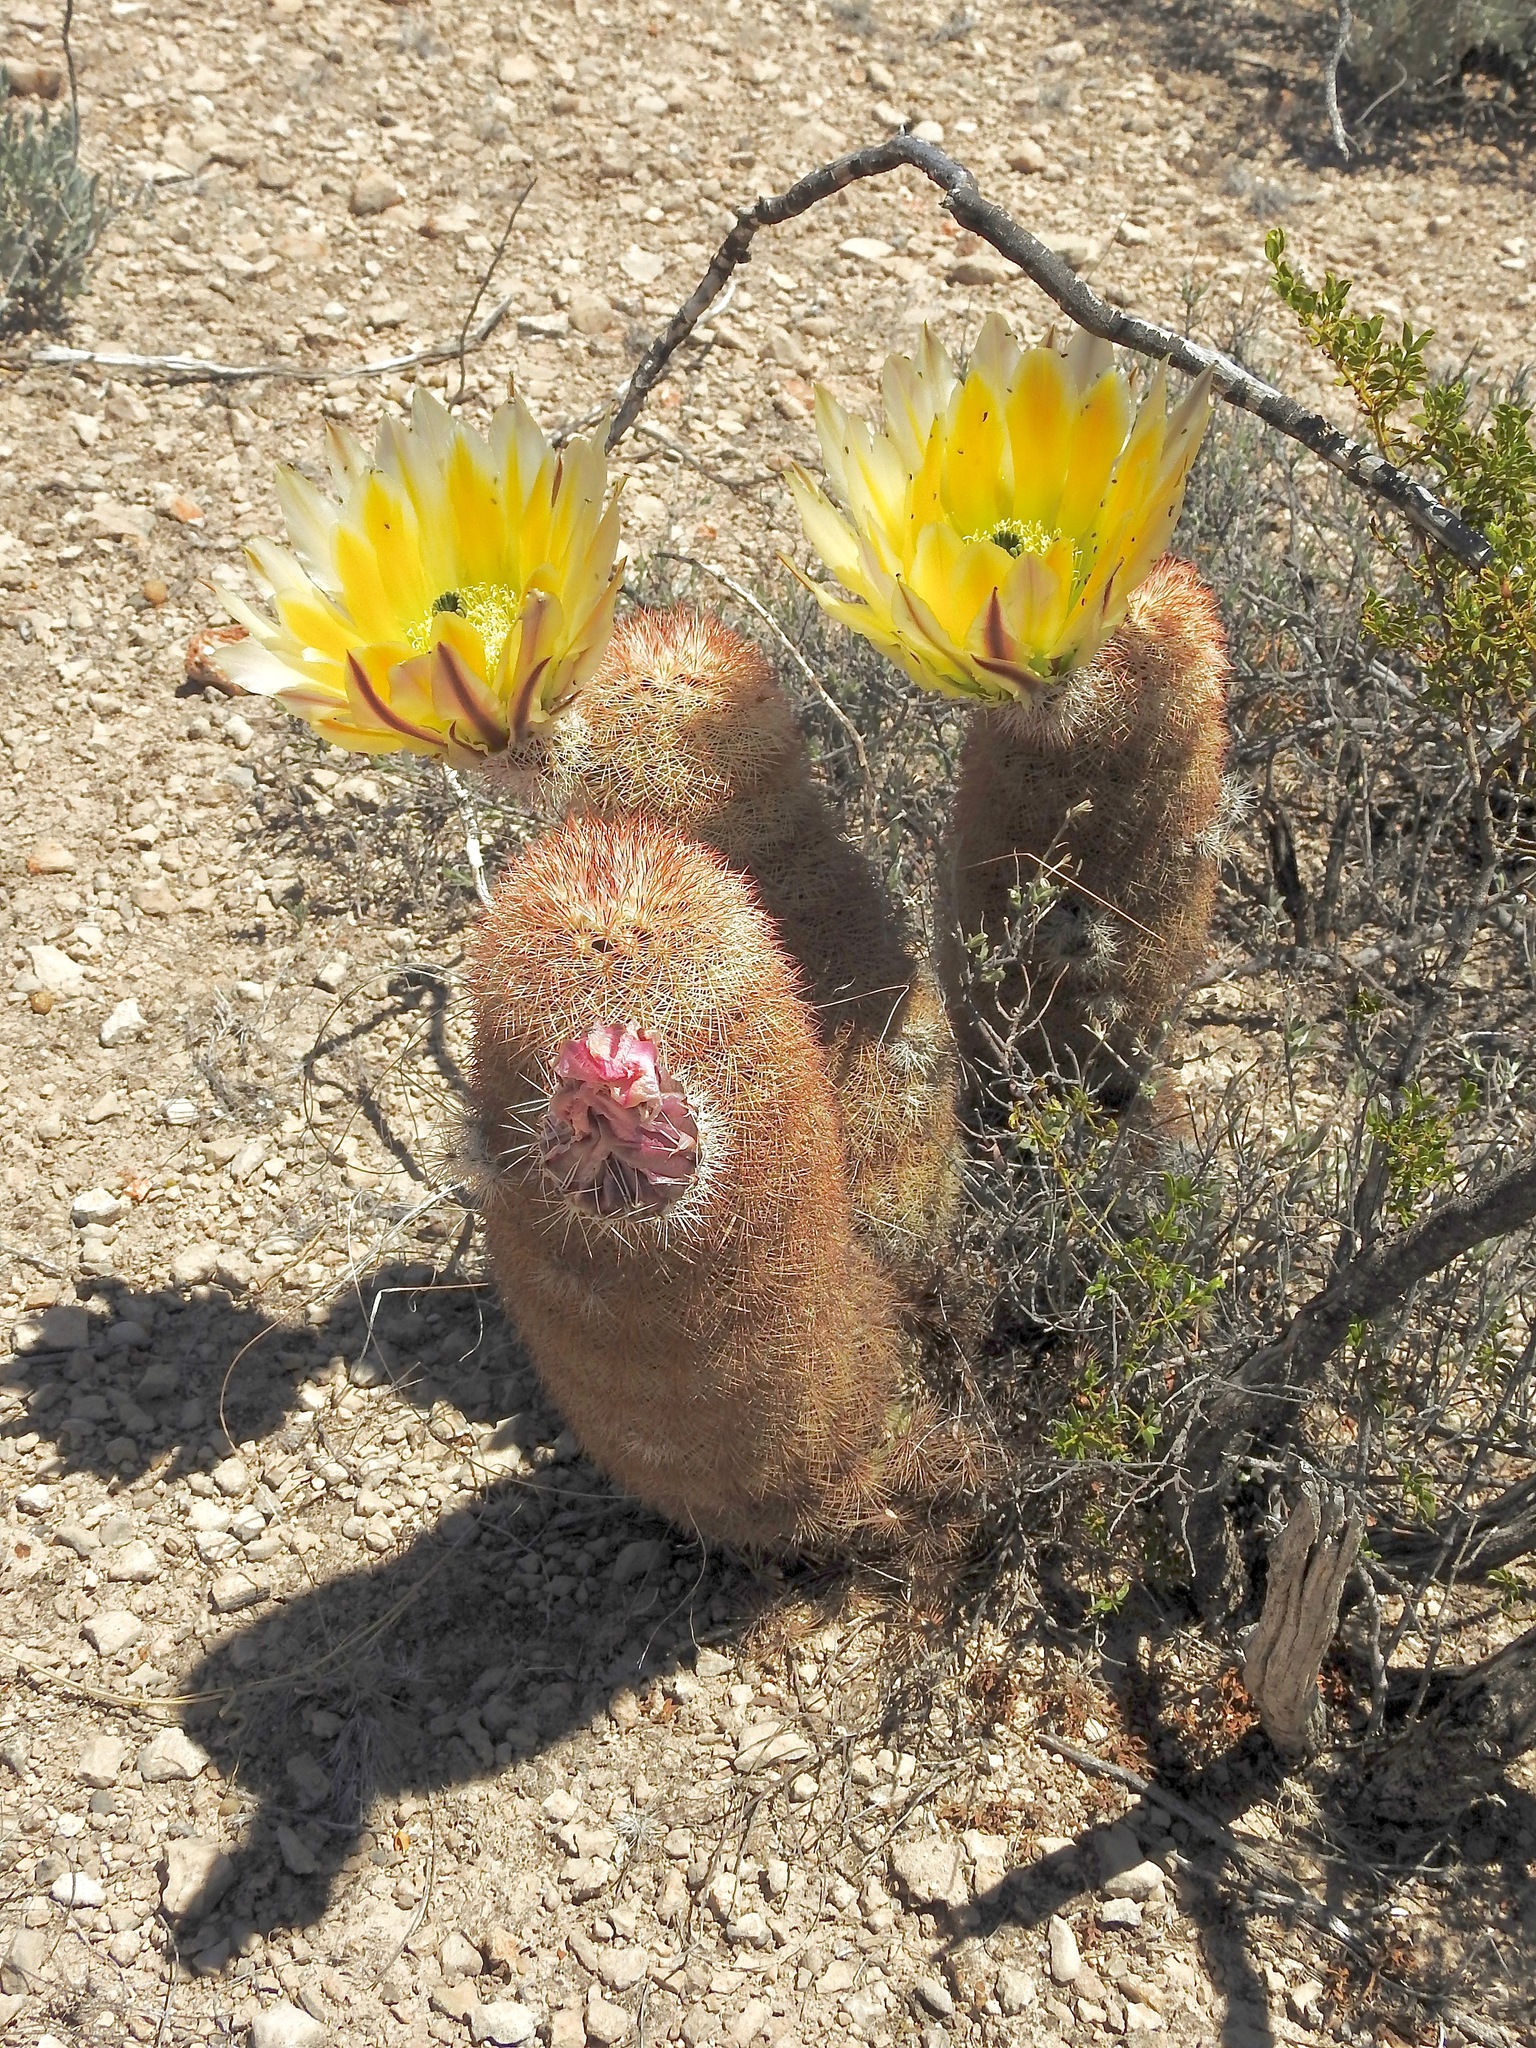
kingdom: Plantae
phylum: Tracheophyta
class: Magnoliopsida
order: Caryophyllales
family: Cactaceae
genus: Echinocereus
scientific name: Echinocereus dasyacanthus
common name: Spiny hedgehog cactus
